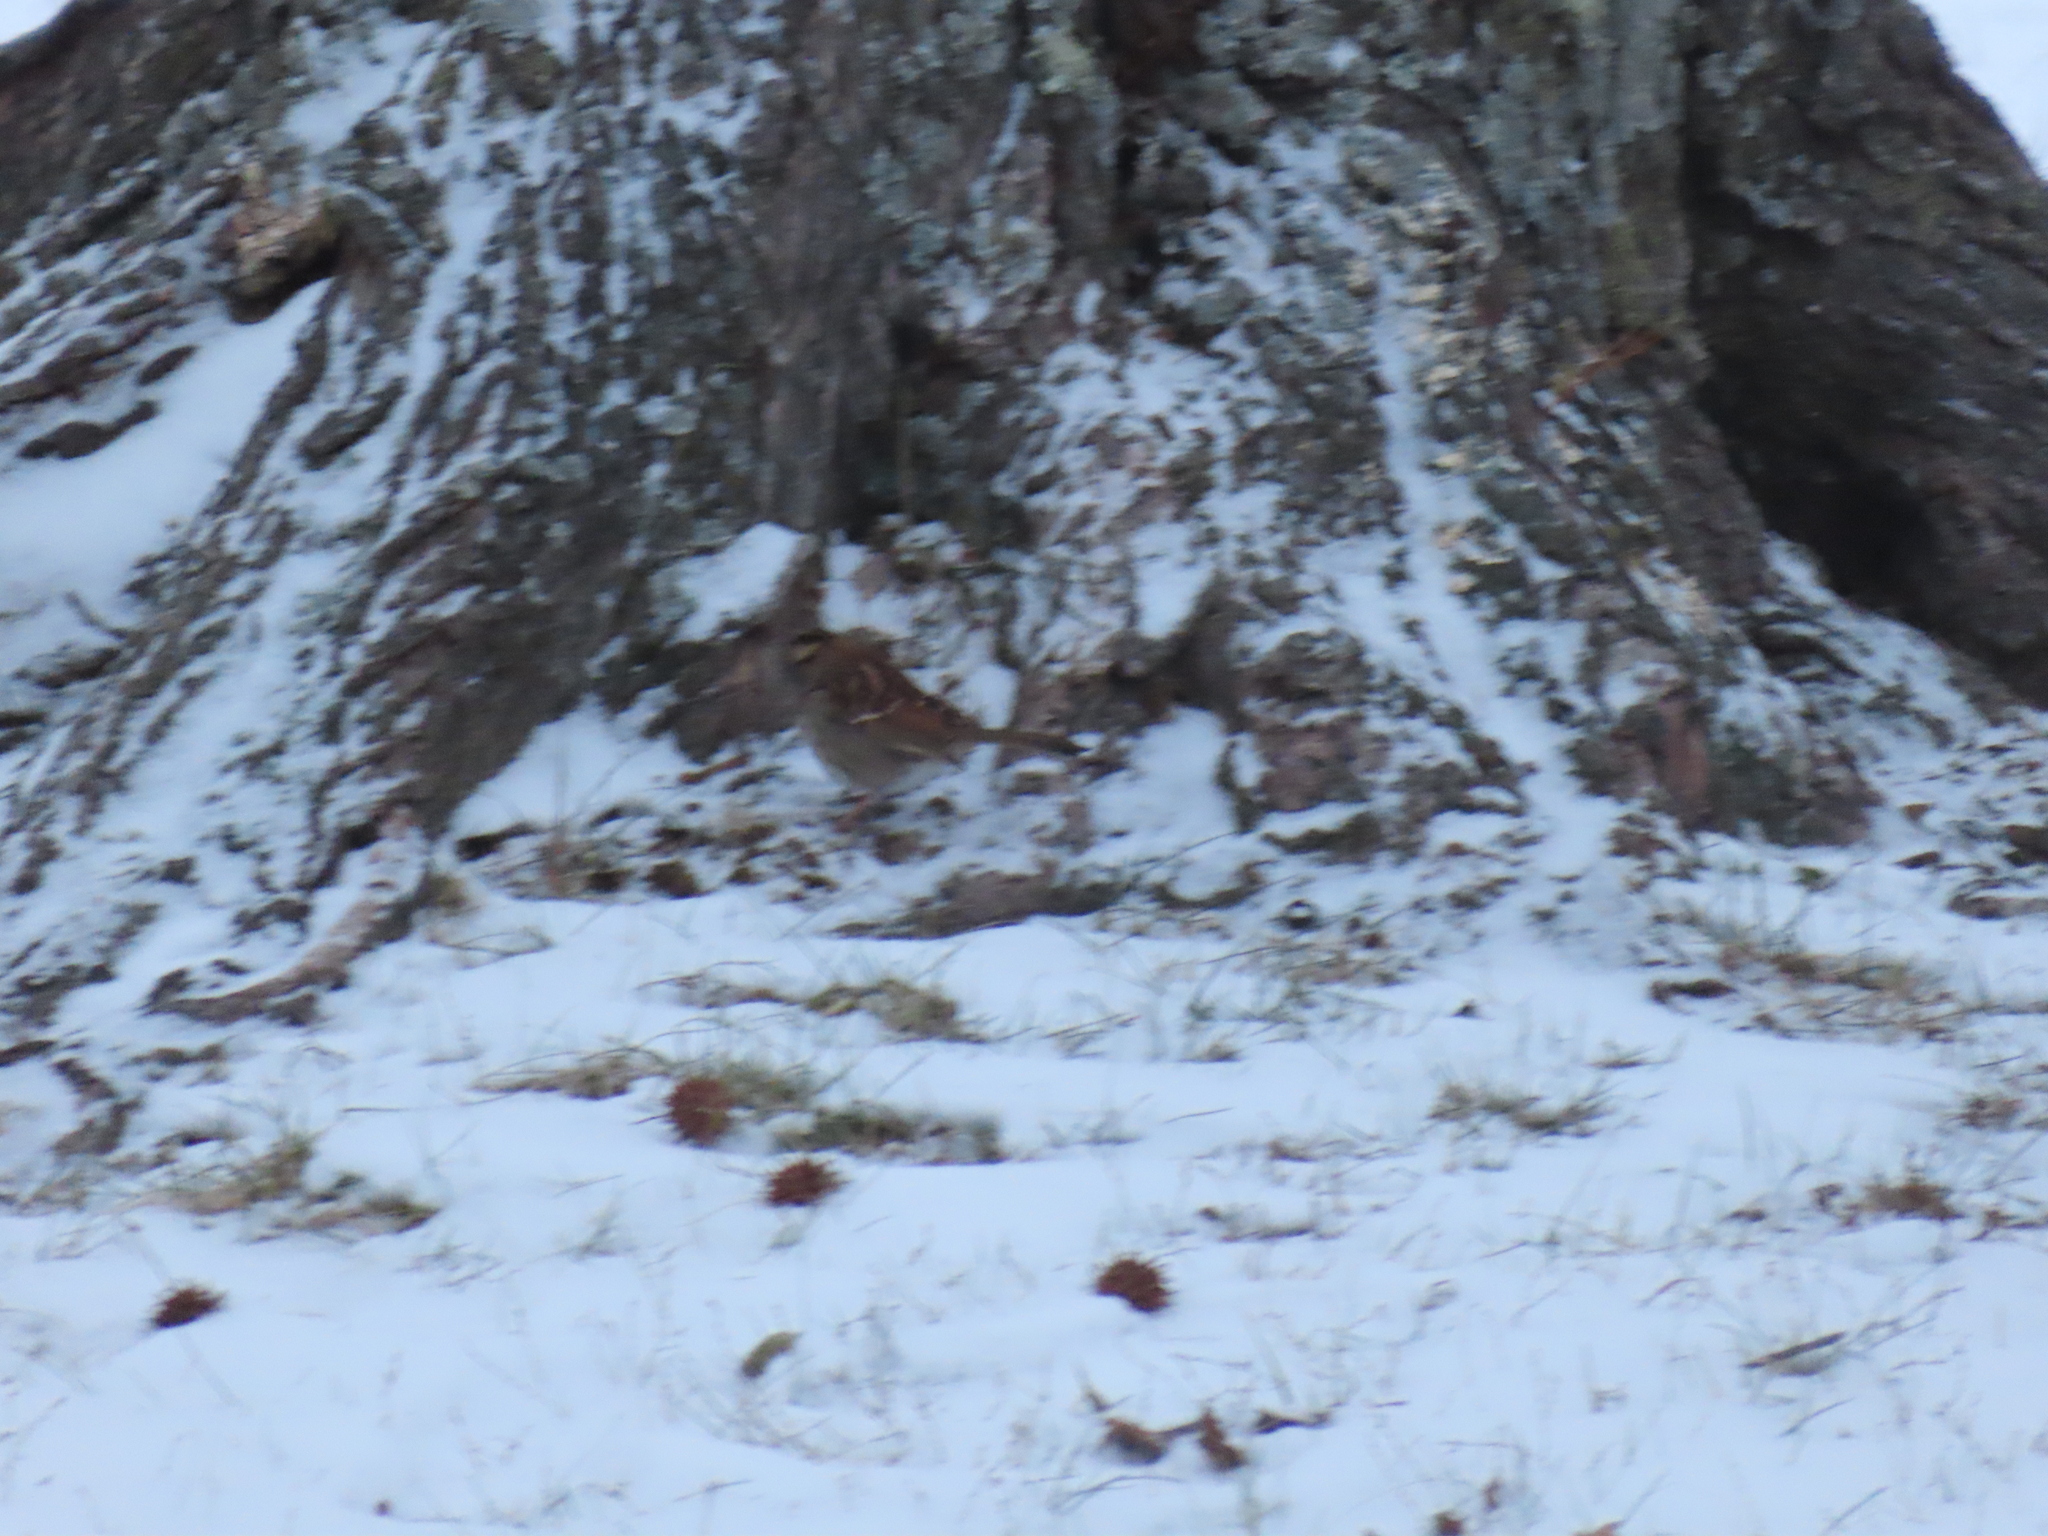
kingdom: Animalia
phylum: Chordata
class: Aves
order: Passeriformes
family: Passerellidae
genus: Zonotrichia
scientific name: Zonotrichia albicollis
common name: White-throated sparrow
